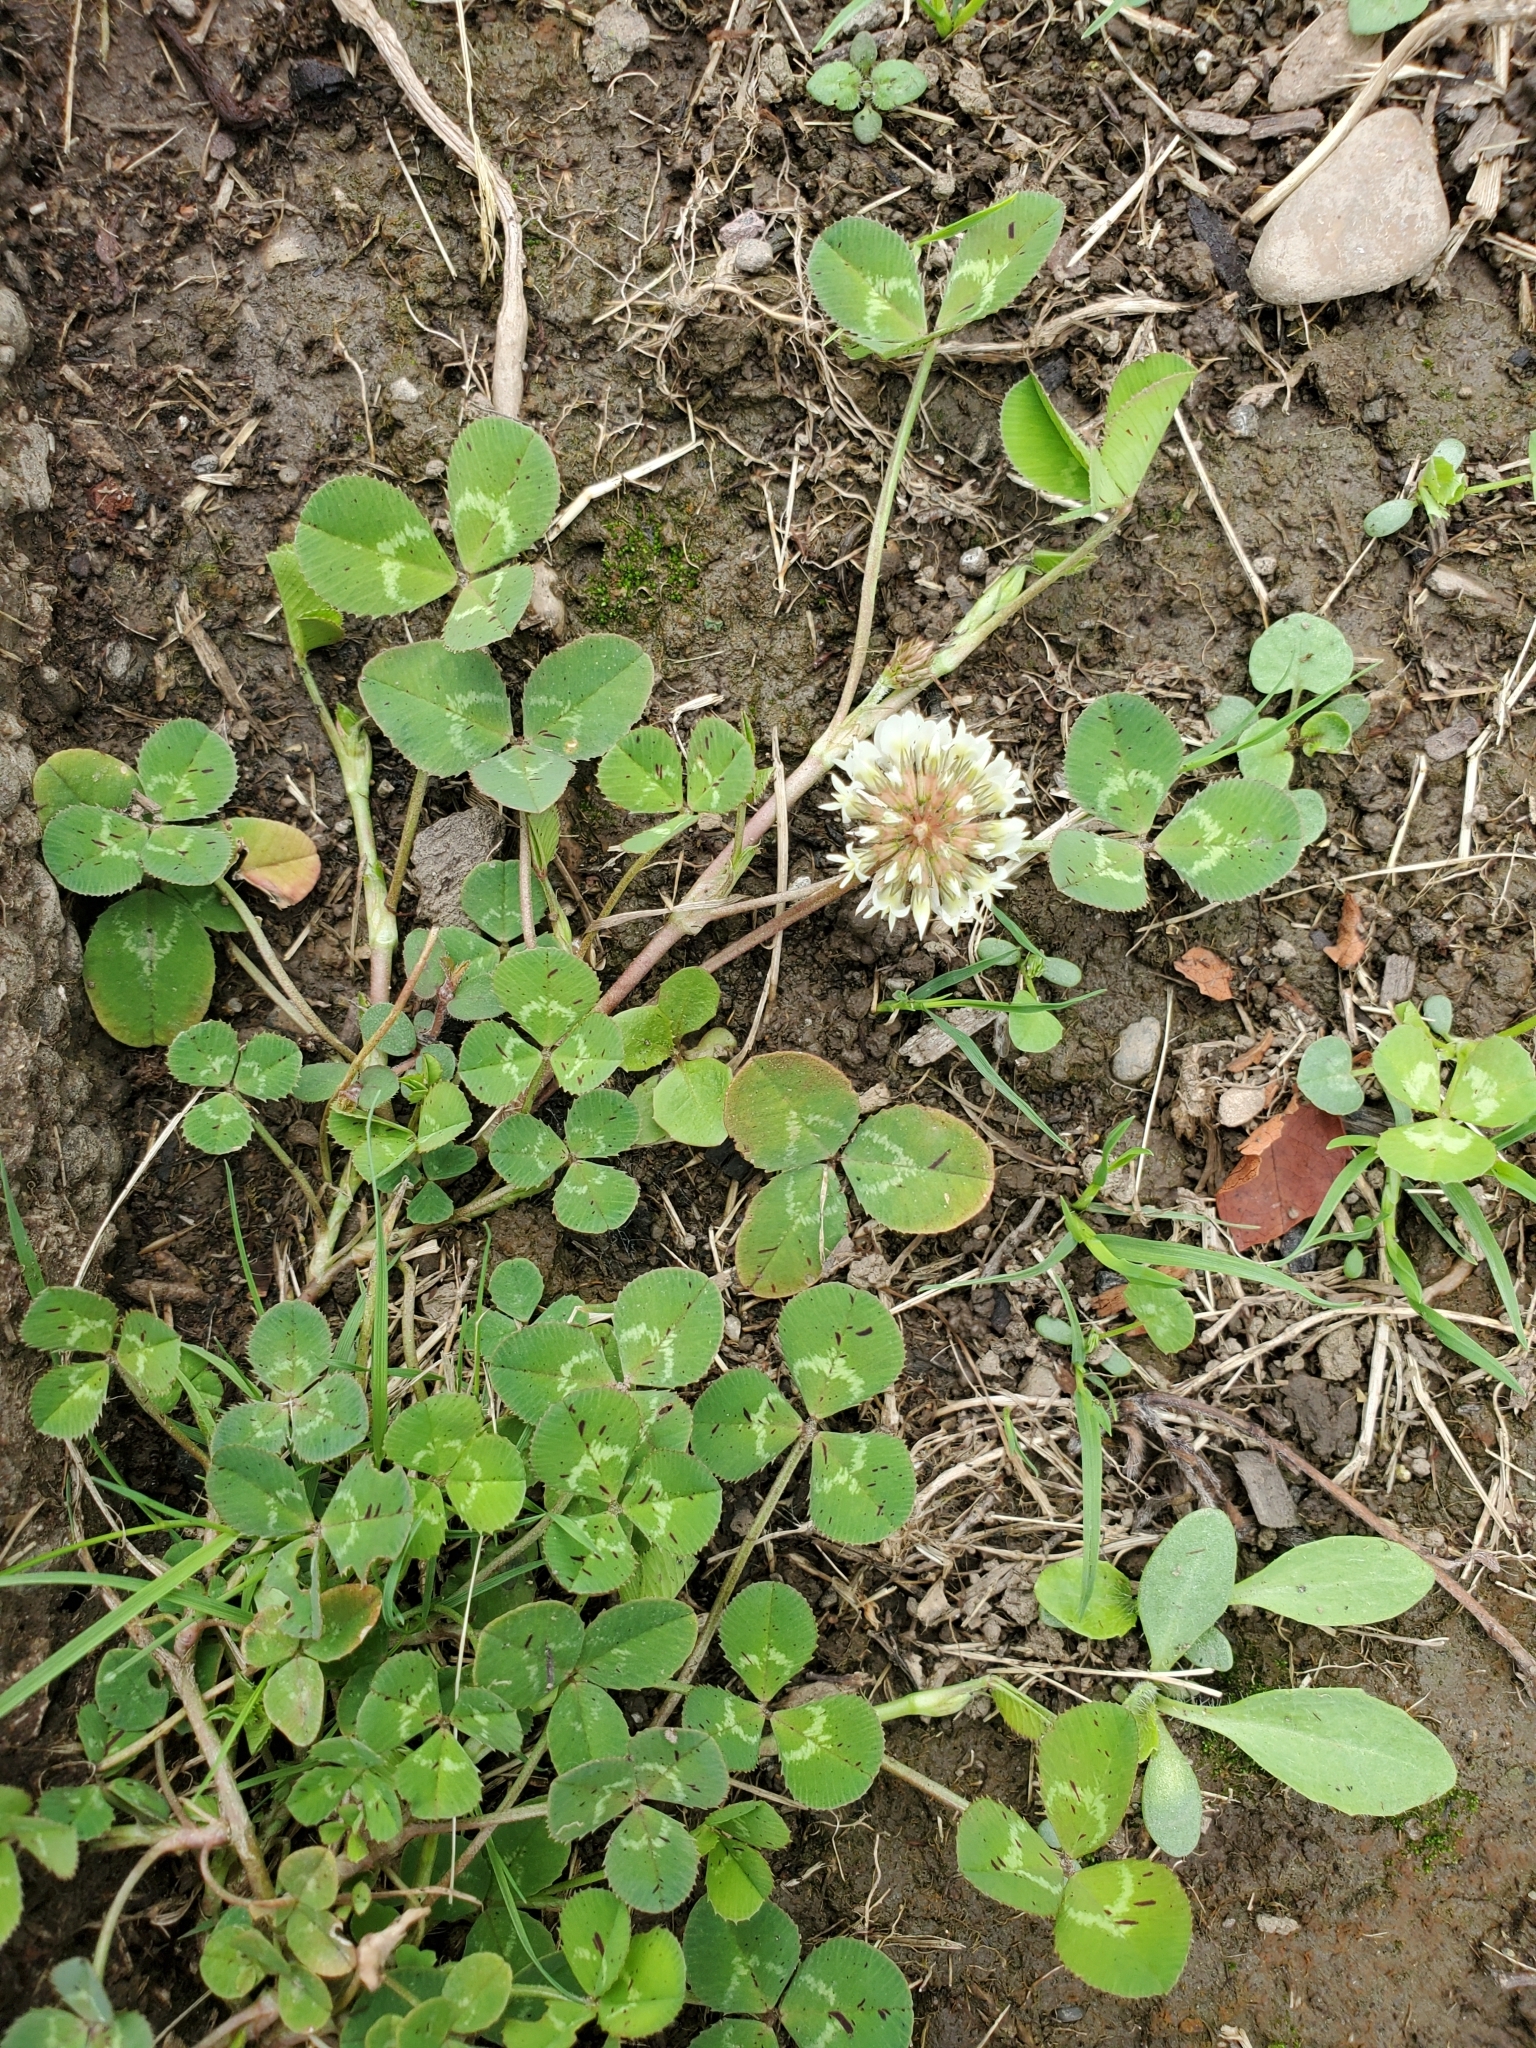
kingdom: Plantae
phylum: Tracheophyta
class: Magnoliopsida
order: Fabales
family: Fabaceae
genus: Trifolium
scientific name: Trifolium repens
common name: White clover
